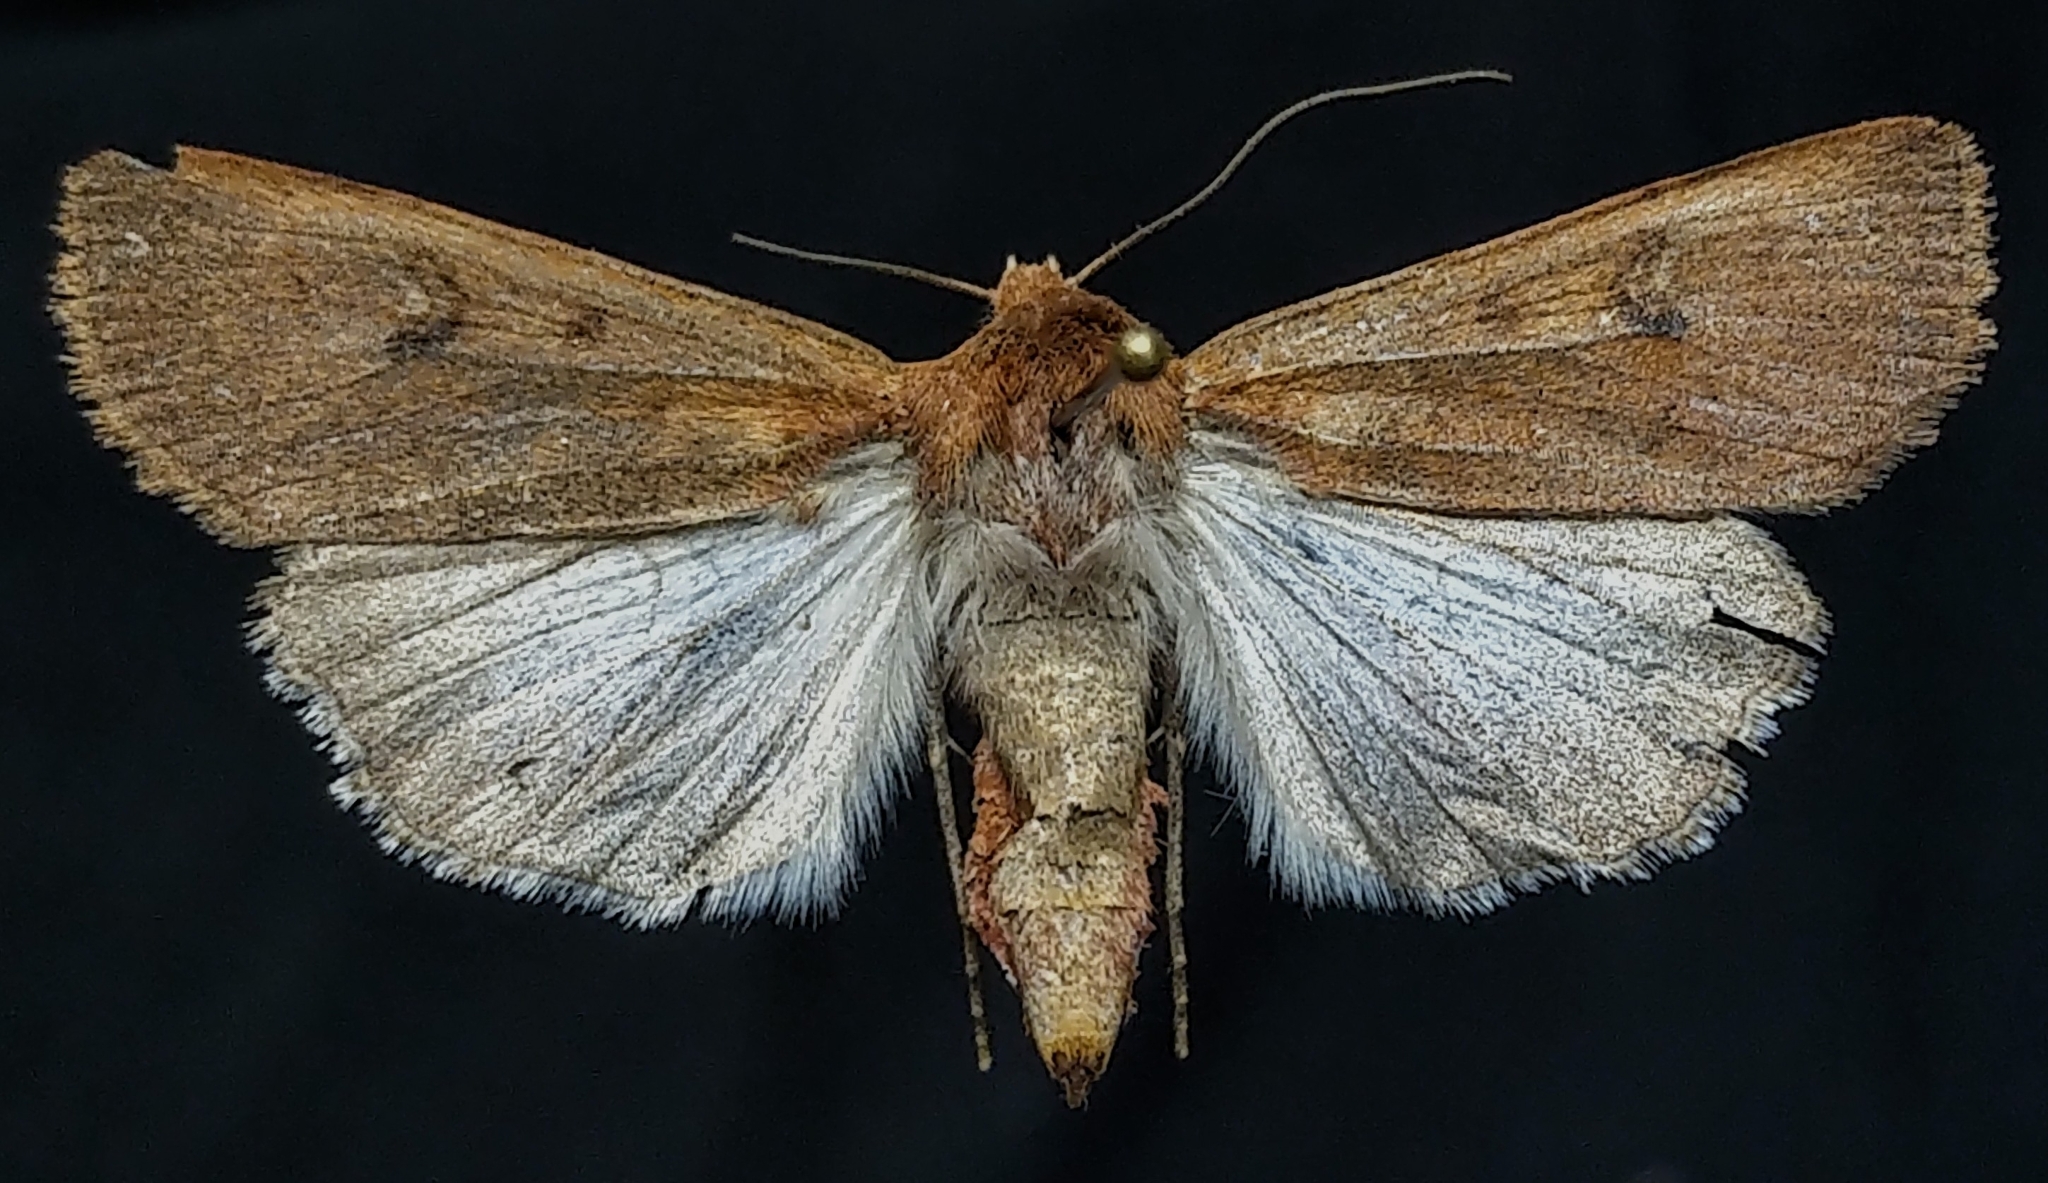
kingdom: Animalia
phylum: Arthropoda
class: Insecta
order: Lepidoptera
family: Noctuidae
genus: Euxoa
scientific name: Euxoa mimallonis
